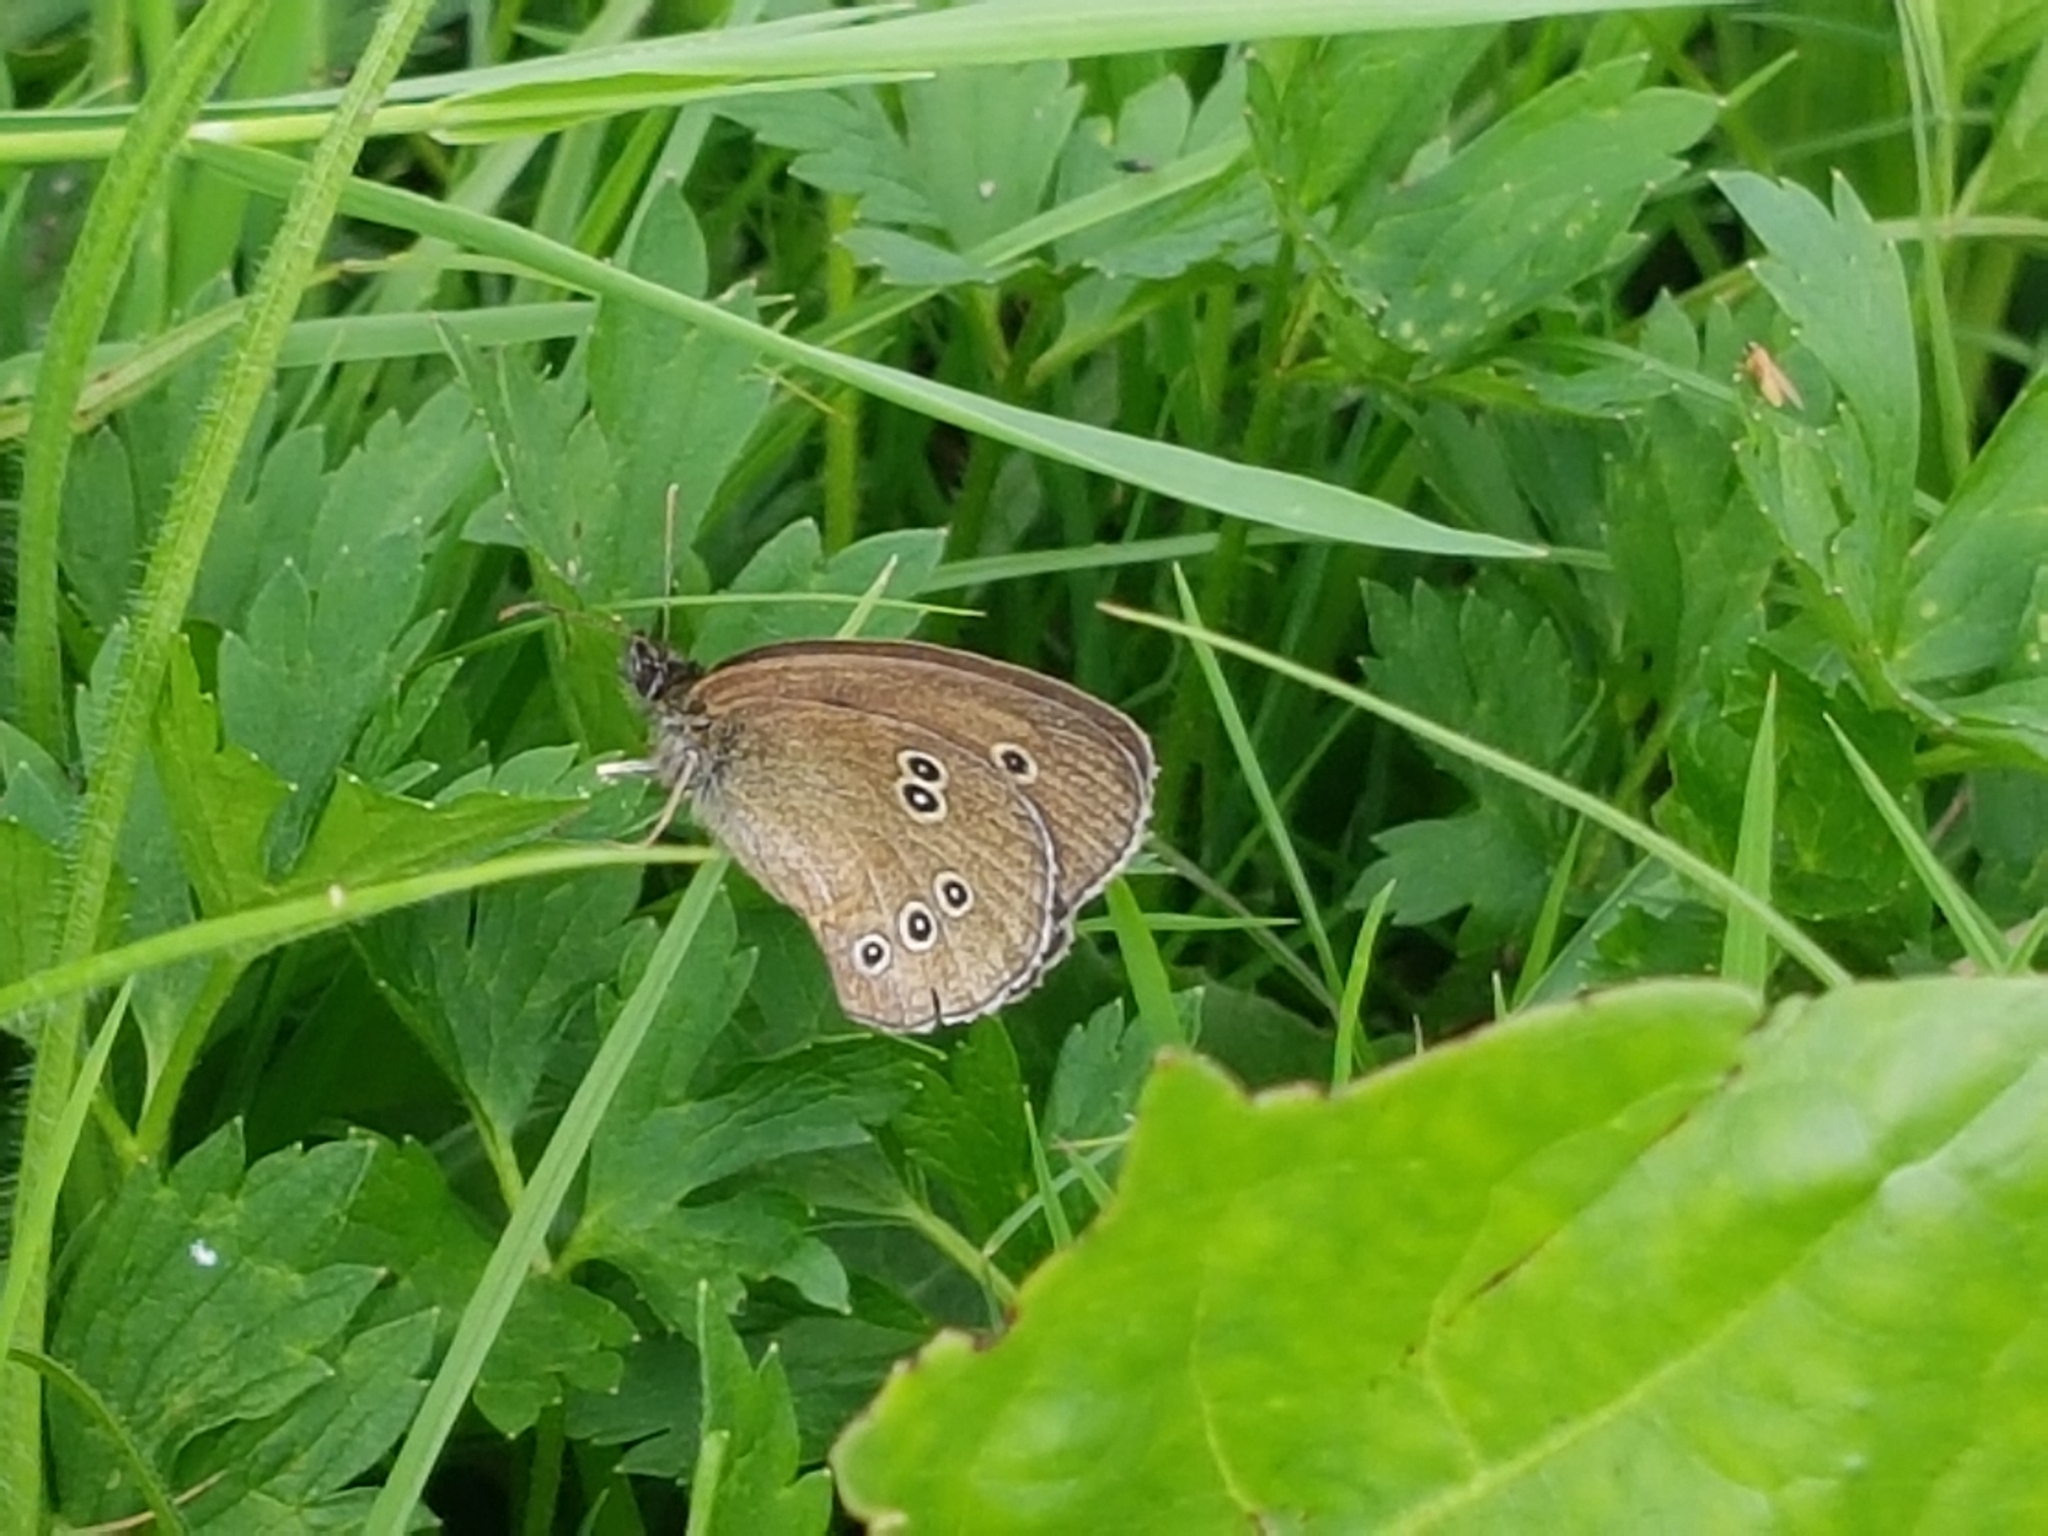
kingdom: Animalia
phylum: Arthropoda
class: Insecta
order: Lepidoptera
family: Nymphalidae
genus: Aphantopus
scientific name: Aphantopus hyperantus
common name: Ringlet
